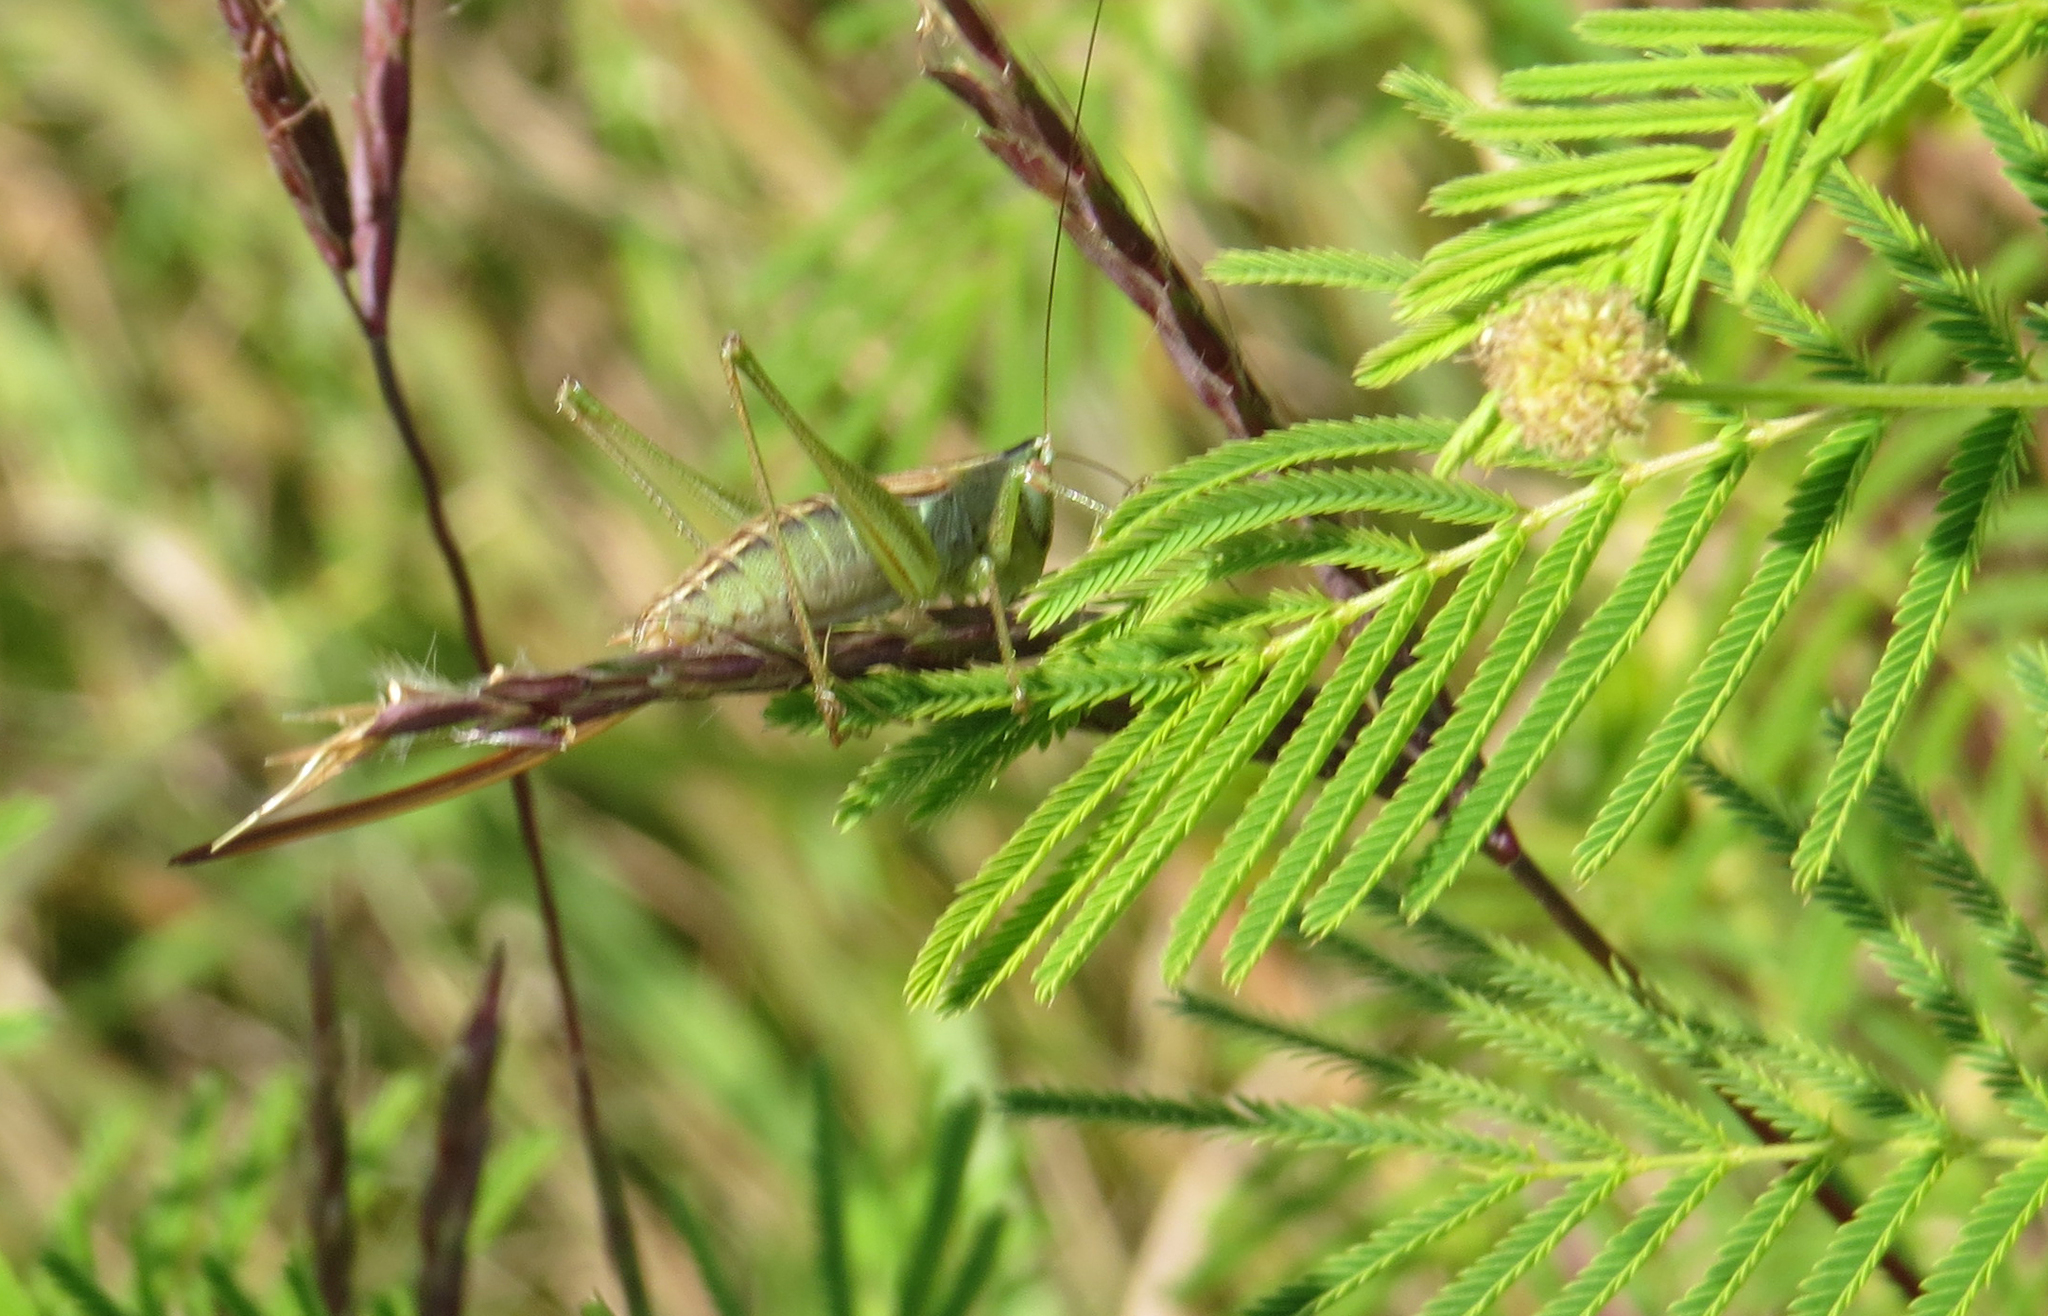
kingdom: Animalia
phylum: Arthropoda
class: Insecta
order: Orthoptera
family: Tettigoniidae
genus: Conocephalus
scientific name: Conocephalus strictus
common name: Straight-lanced katydid
